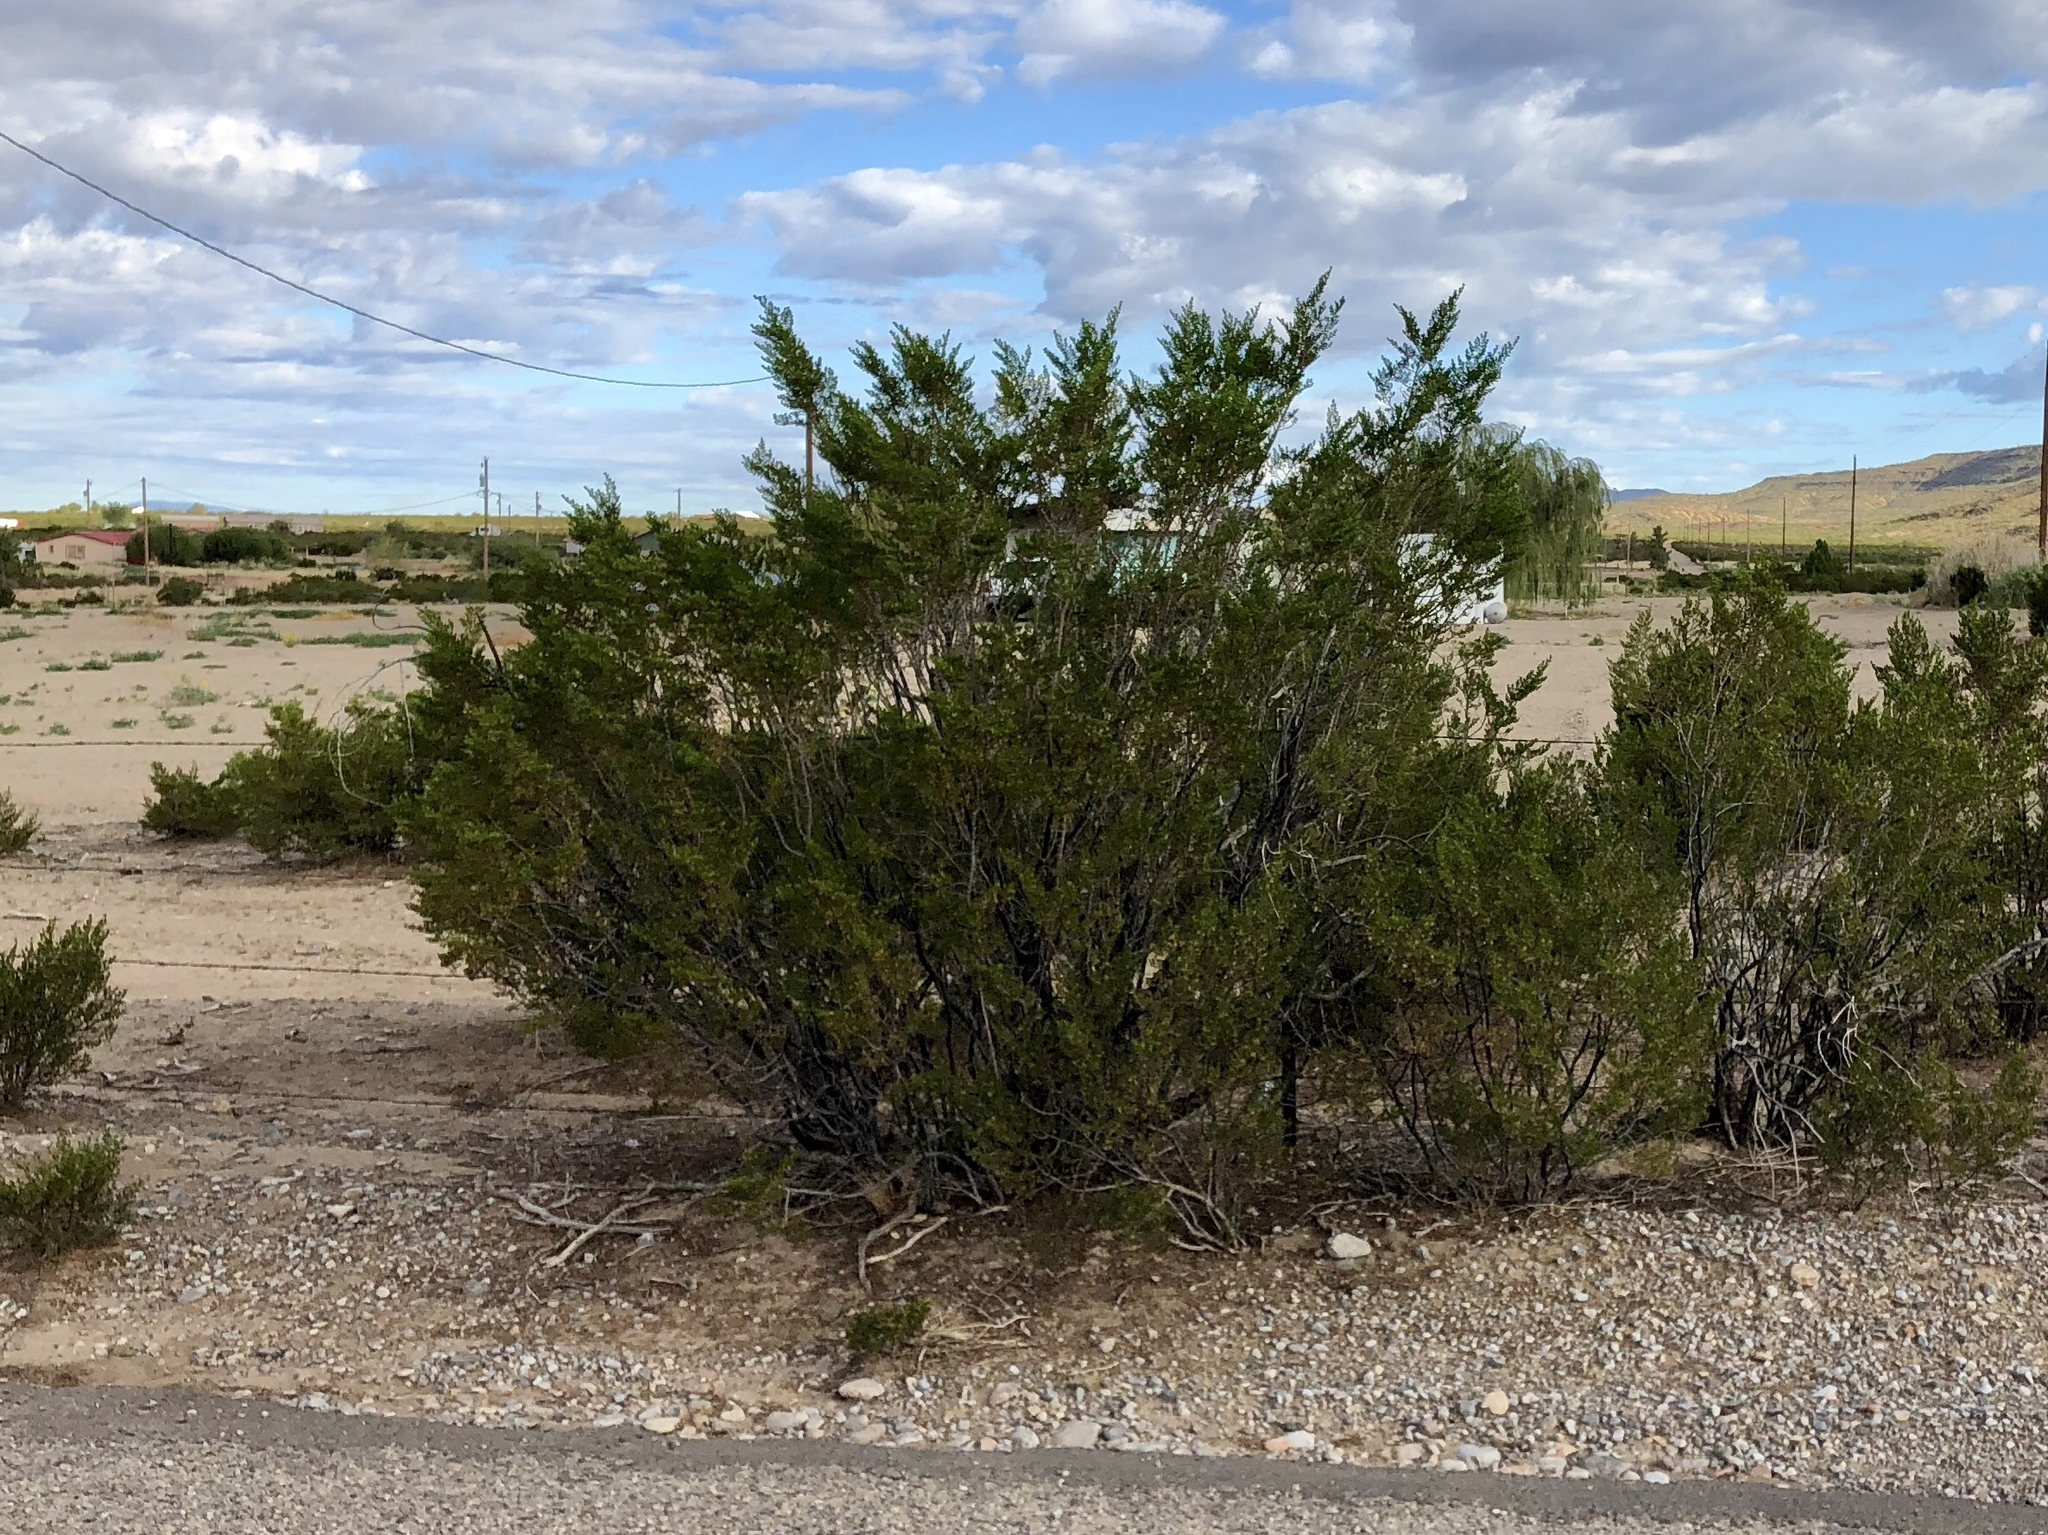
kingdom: Plantae
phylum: Tracheophyta
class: Magnoliopsida
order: Zygophyllales
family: Zygophyllaceae
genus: Larrea
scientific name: Larrea tridentata
